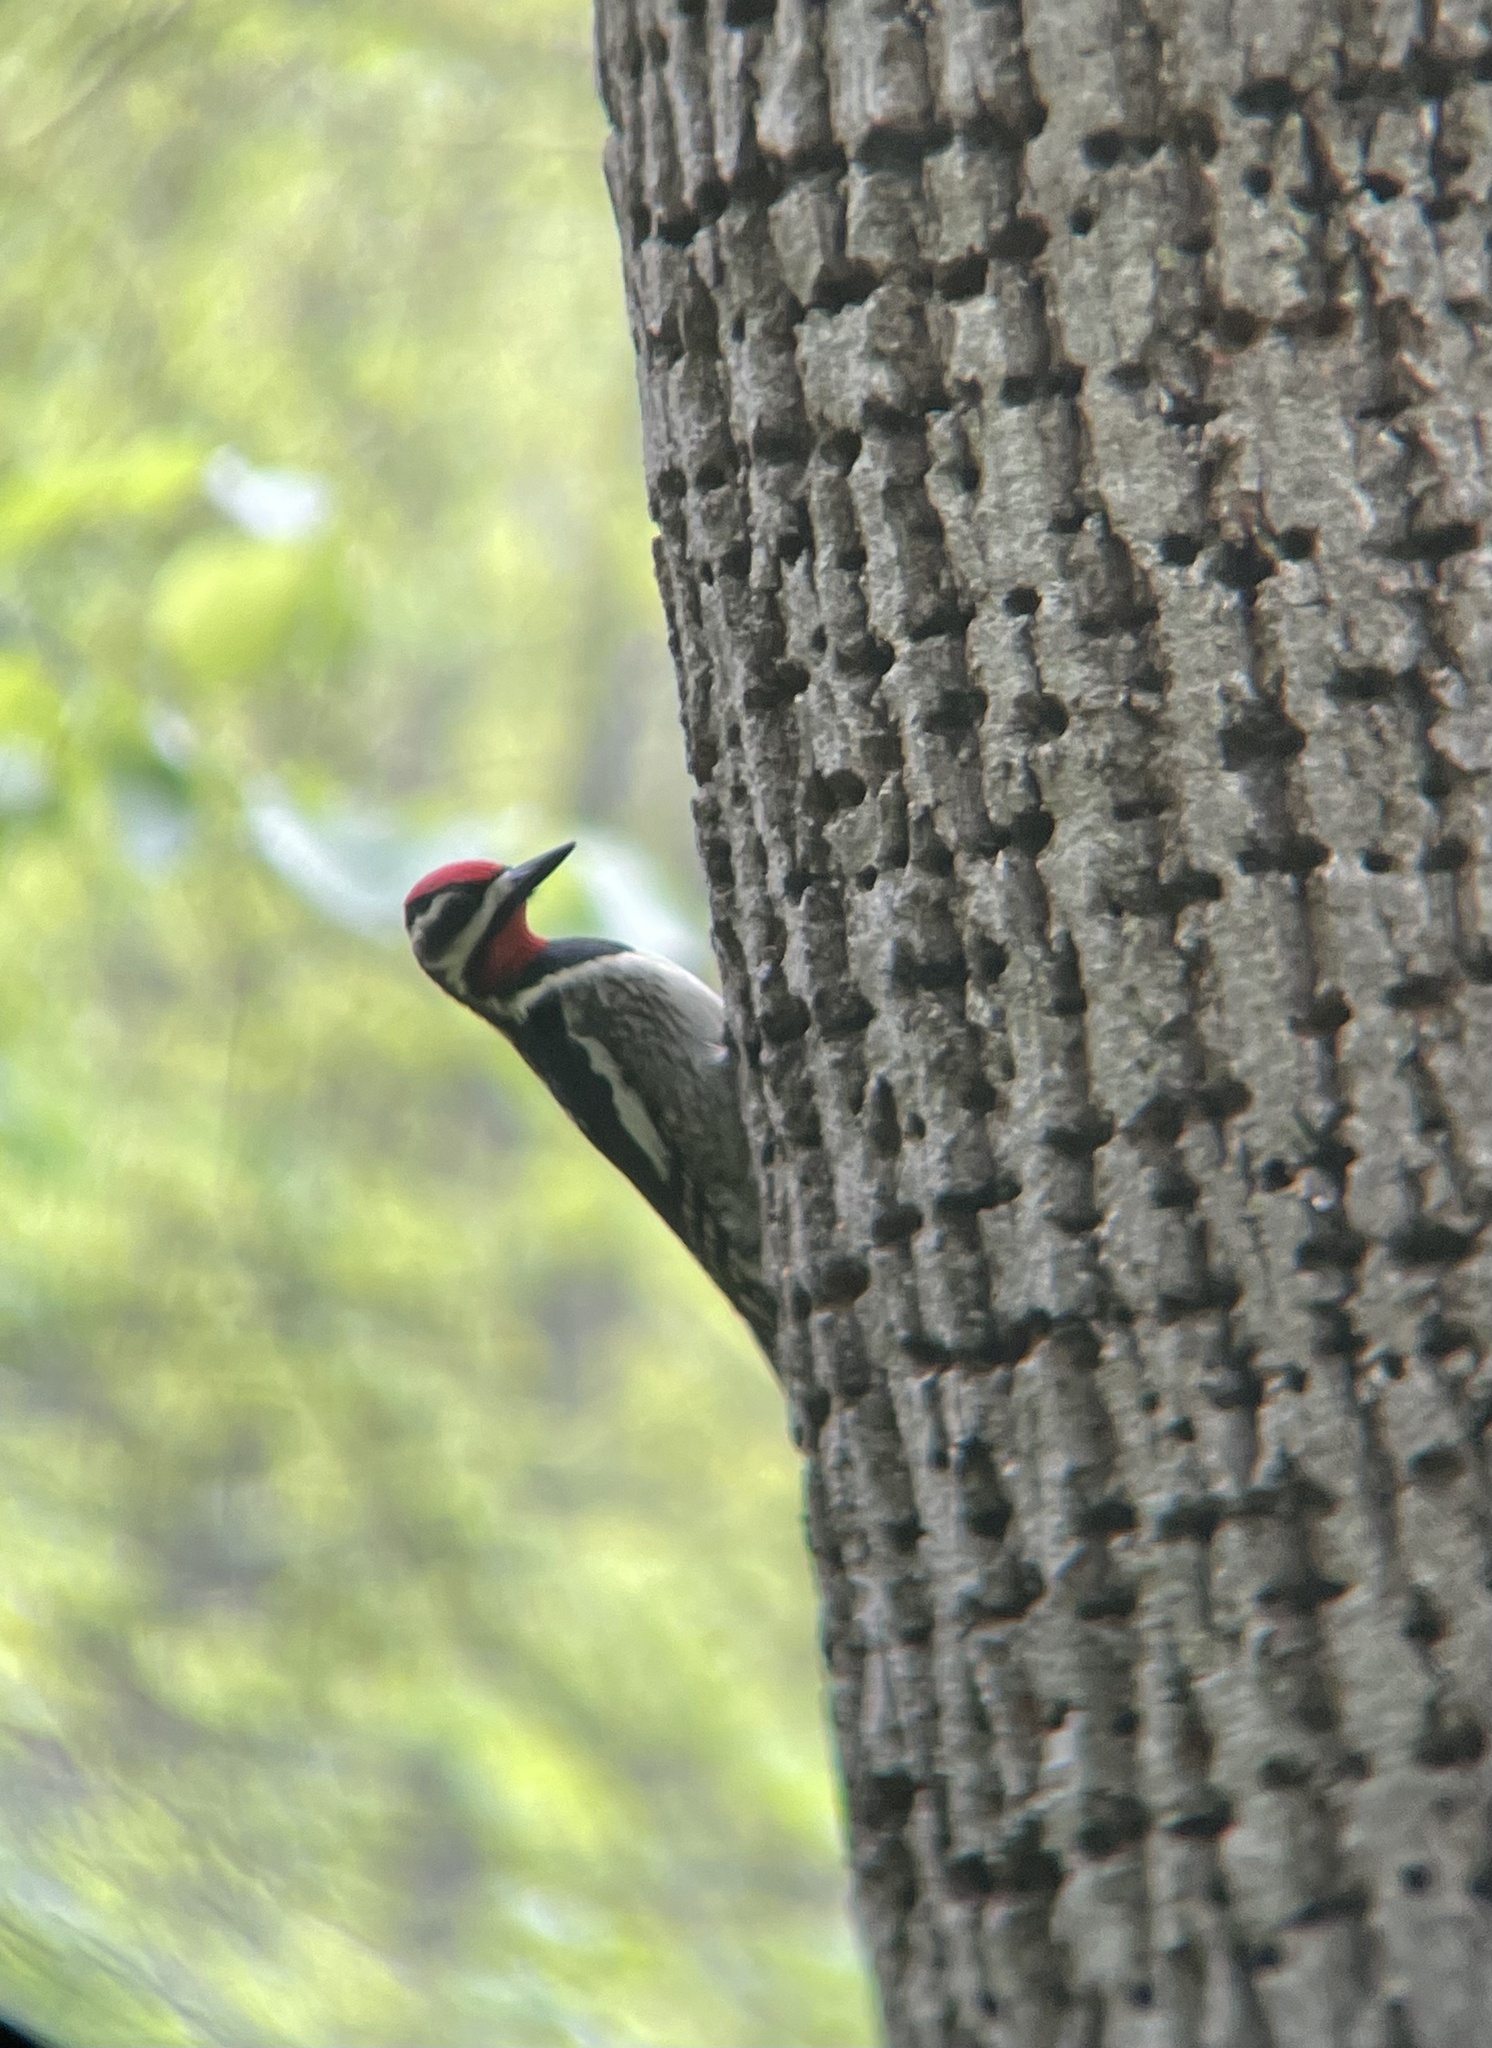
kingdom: Animalia
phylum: Chordata
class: Aves
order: Piciformes
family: Picidae
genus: Sphyrapicus
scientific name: Sphyrapicus varius
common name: Yellow-bellied sapsucker
